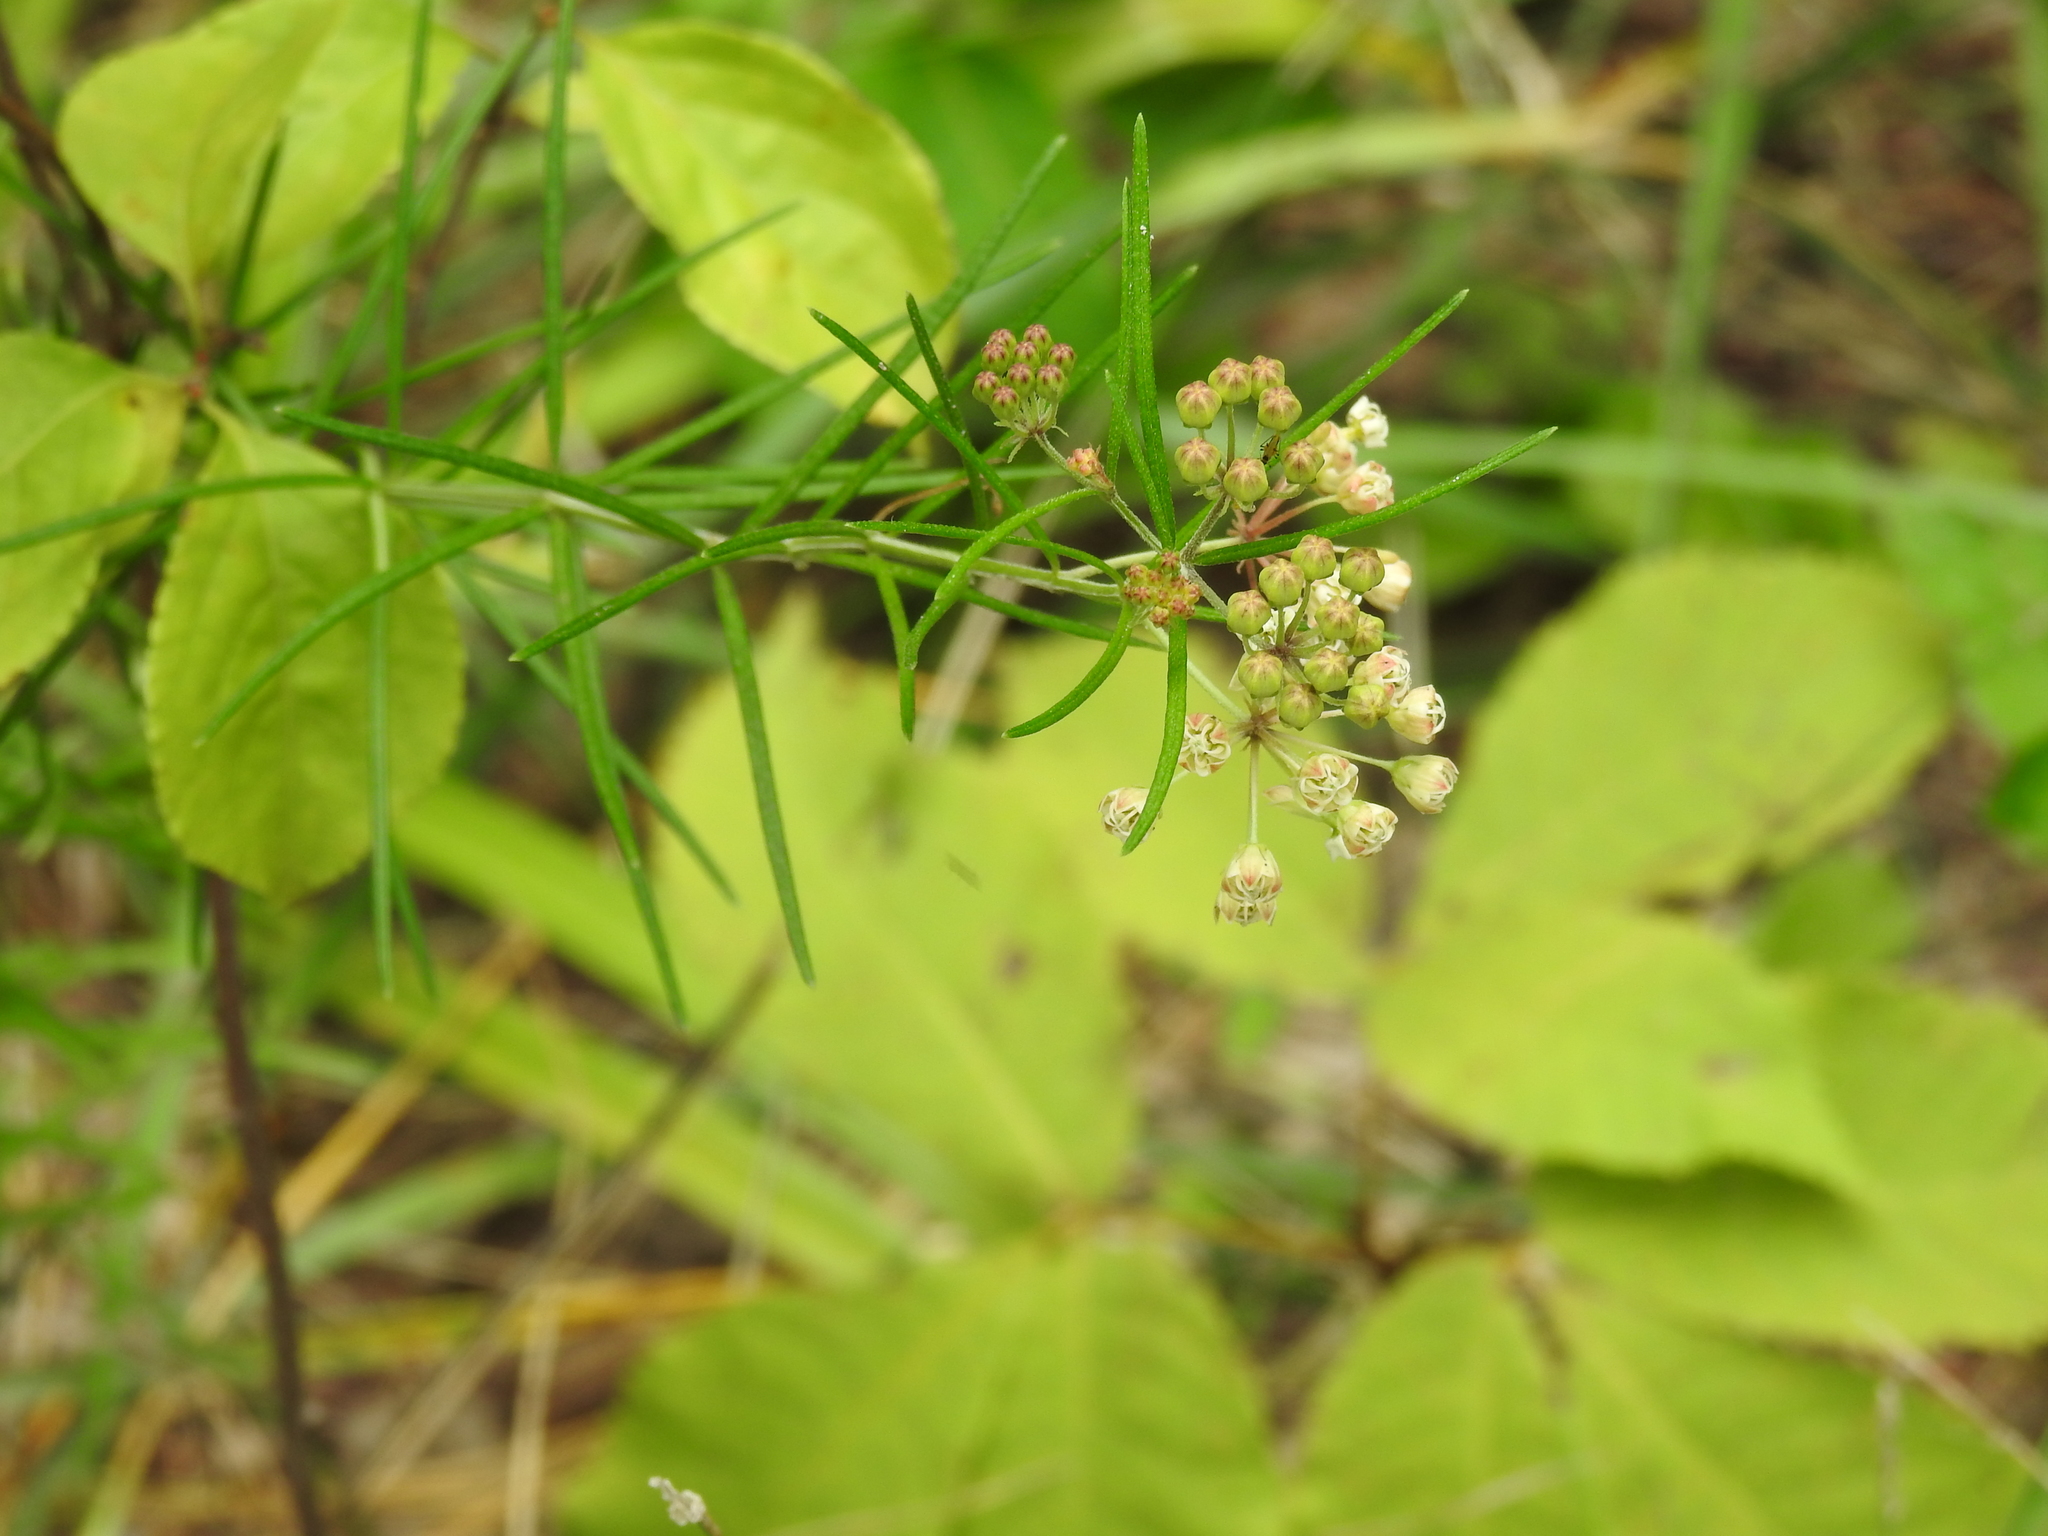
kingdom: Plantae
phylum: Tracheophyta
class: Magnoliopsida
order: Gentianales
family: Apocynaceae
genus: Asclepias
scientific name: Asclepias verticillata
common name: Eastern whorled milkweed
